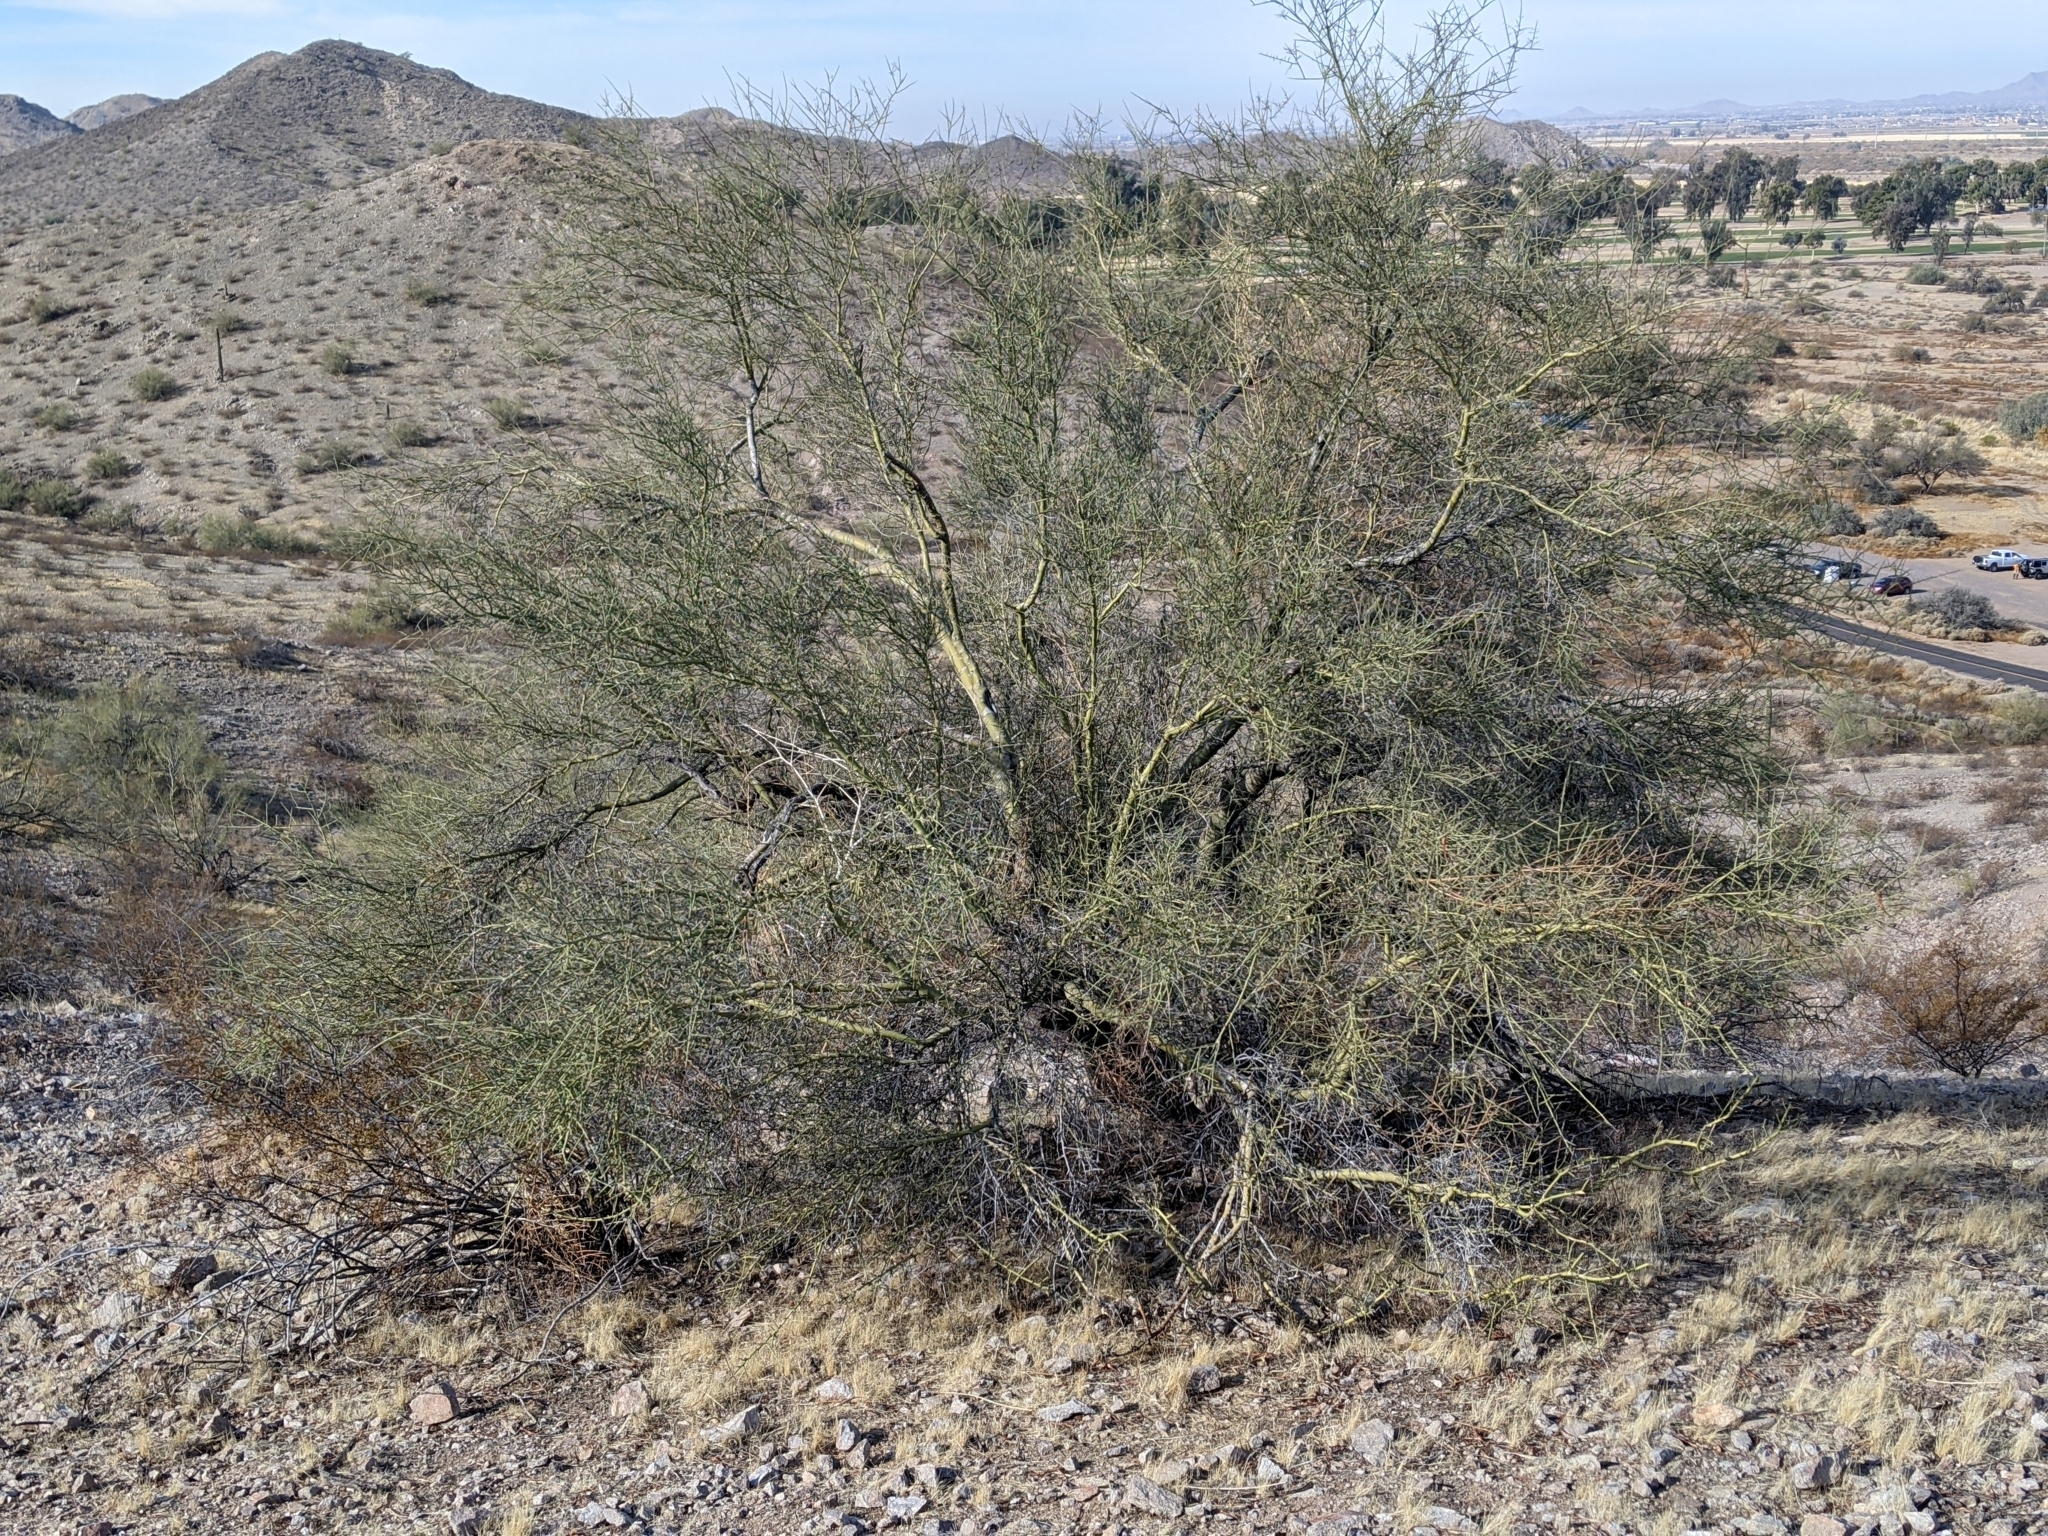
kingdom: Plantae
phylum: Tracheophyta
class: Magnoliopsida
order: Fabales
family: Fabaceae
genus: Parkinsonia
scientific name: Parkinsonia microphylla
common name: Yellow paloverde
